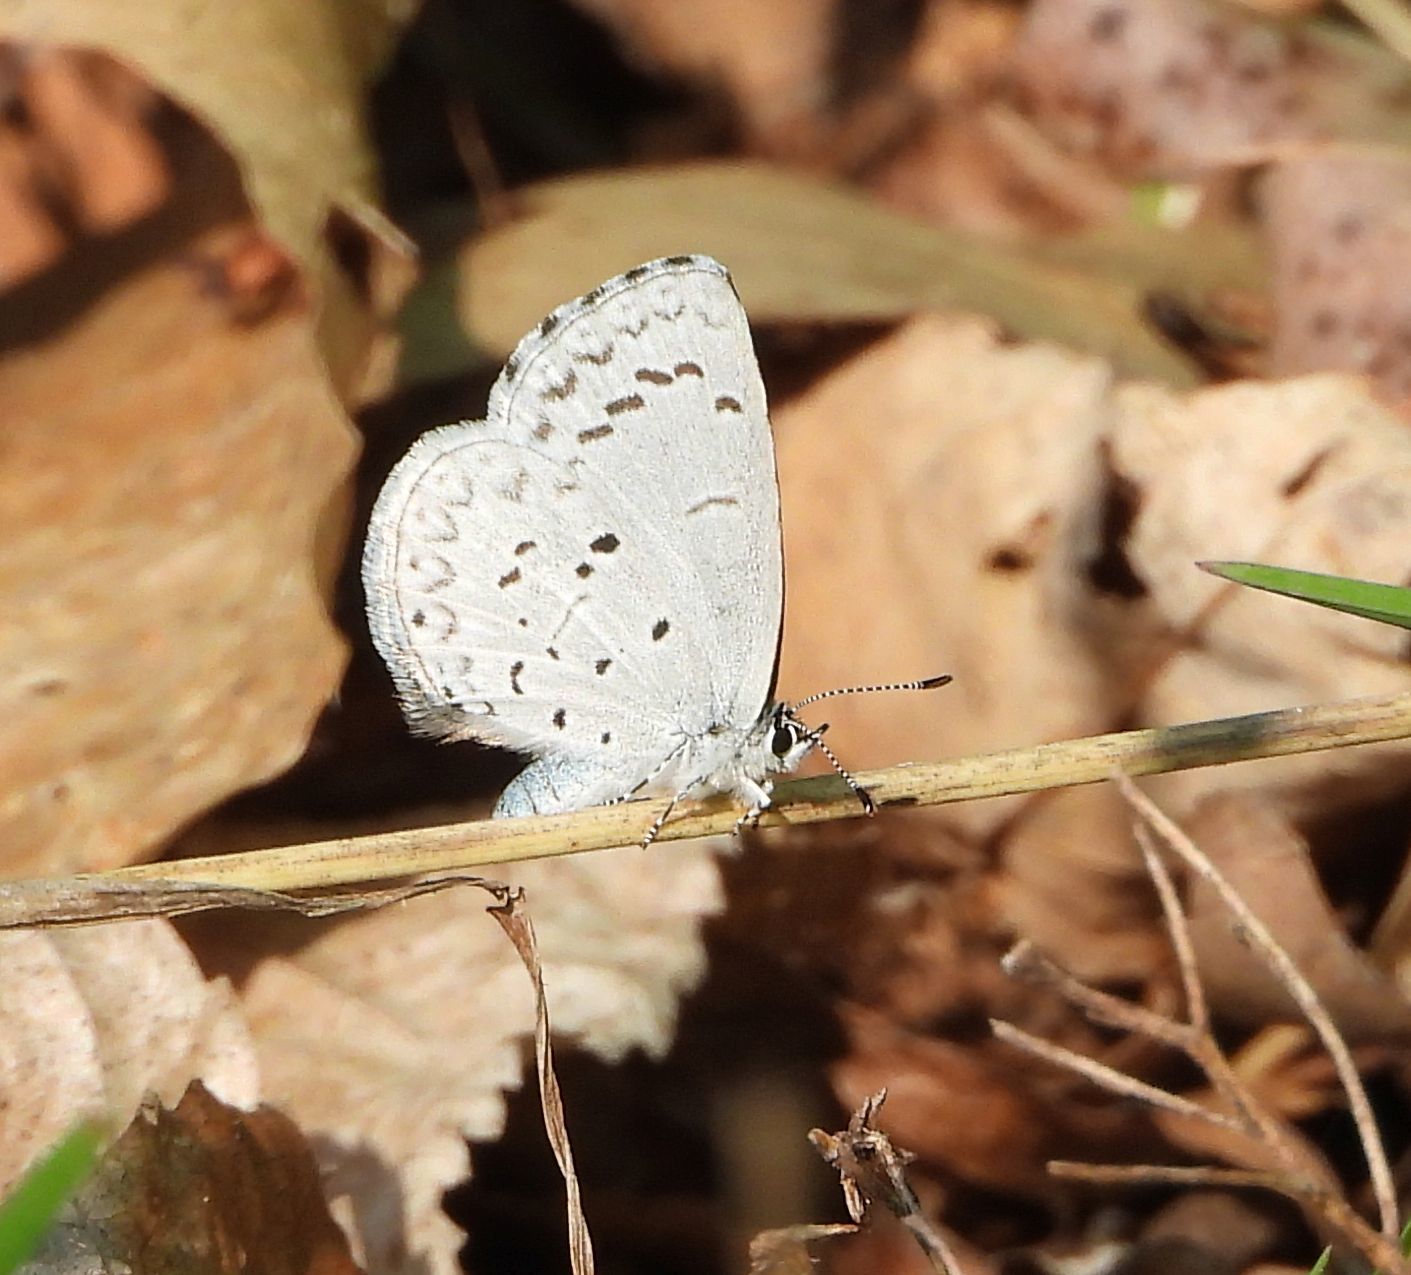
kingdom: Animalia
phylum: Arthropoda
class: Insecta
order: Lepidoptera
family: Lycaenidae
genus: Celastrina
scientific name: Celastrina lucia
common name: Lucia azure
